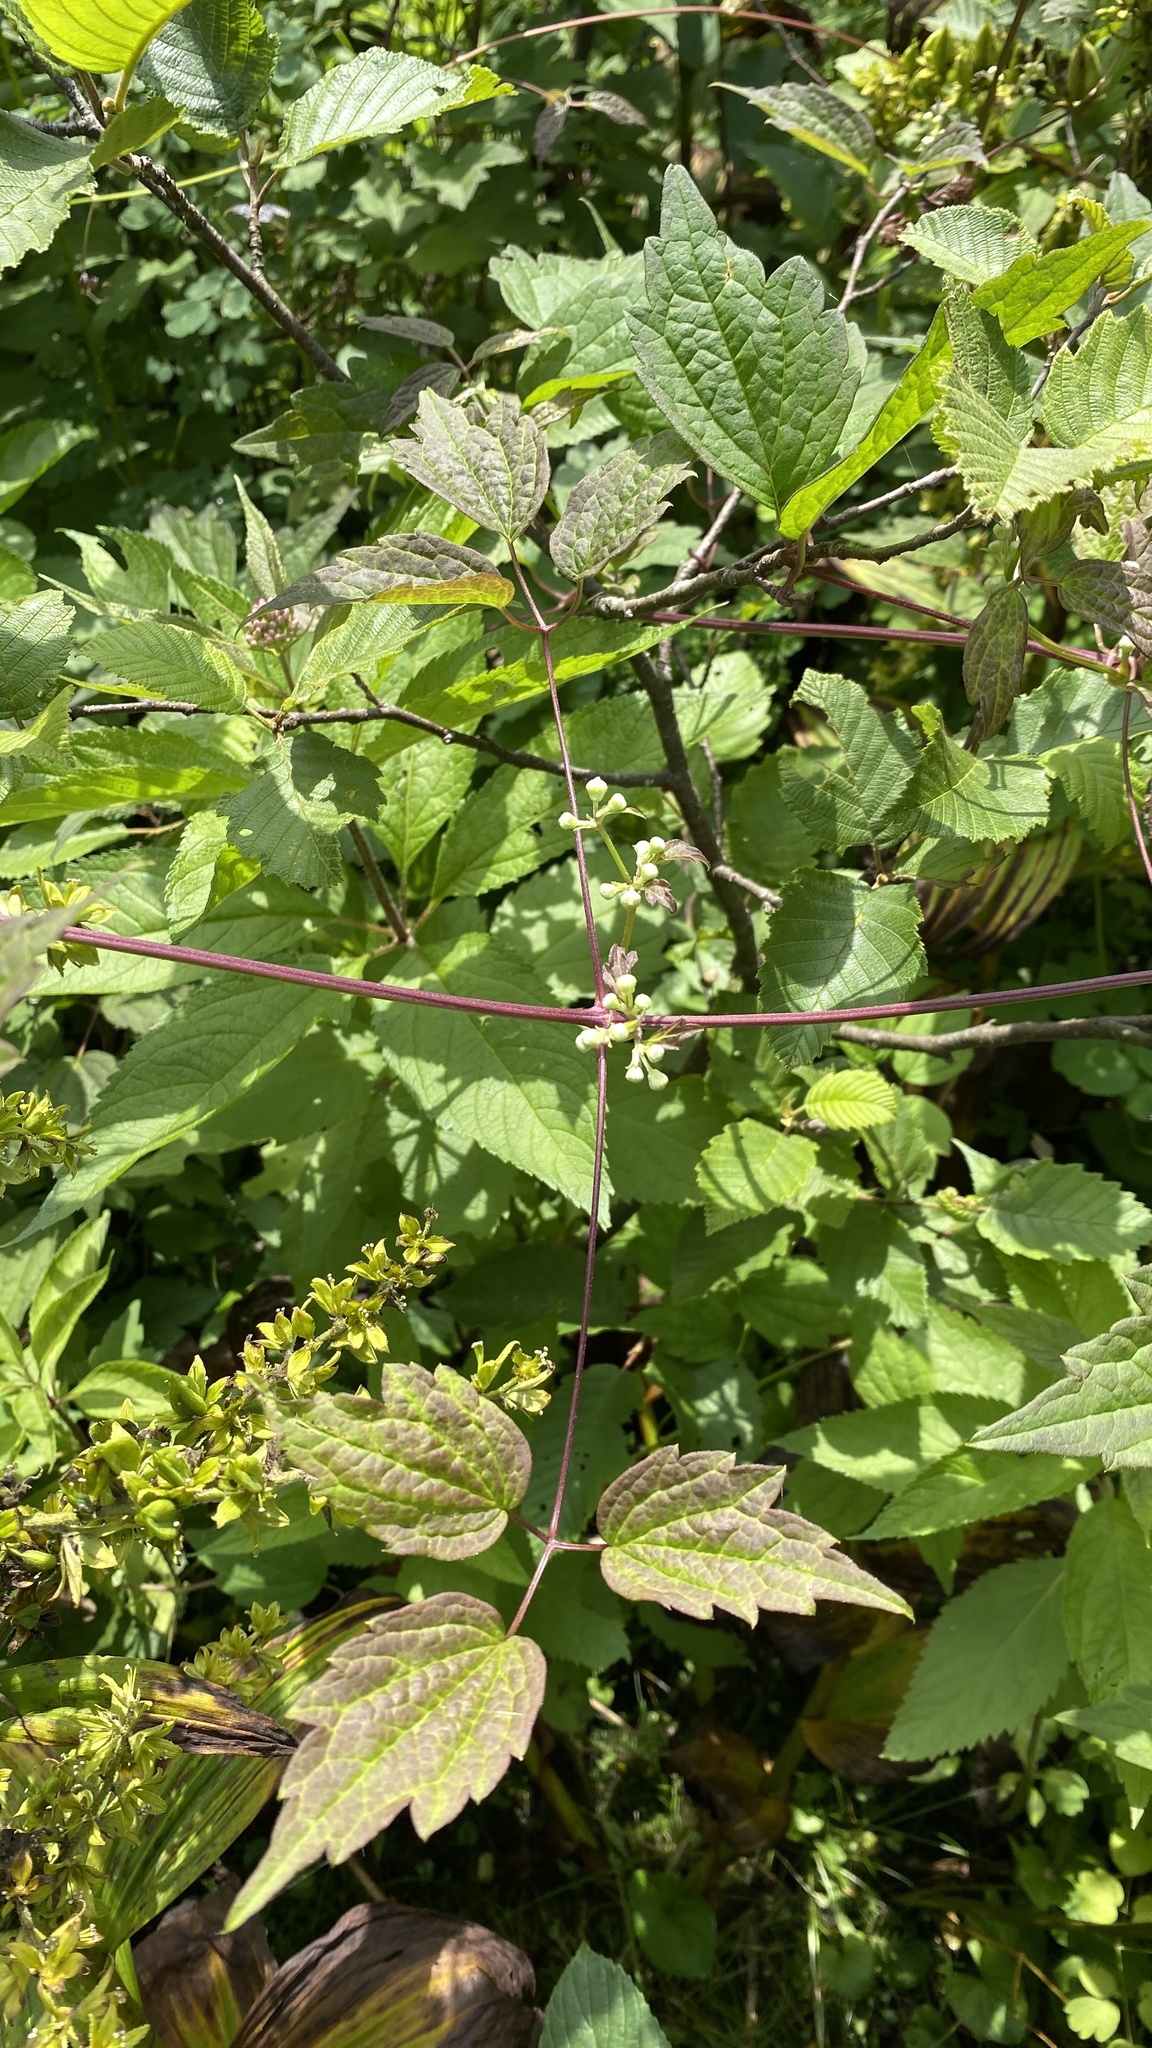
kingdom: Plantae
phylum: Tracheophyta
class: Magnoliopsida
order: Ranunculales
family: Ranunculaceae
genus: Clematis
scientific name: Clematis virginiana
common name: Virgin's-bower
